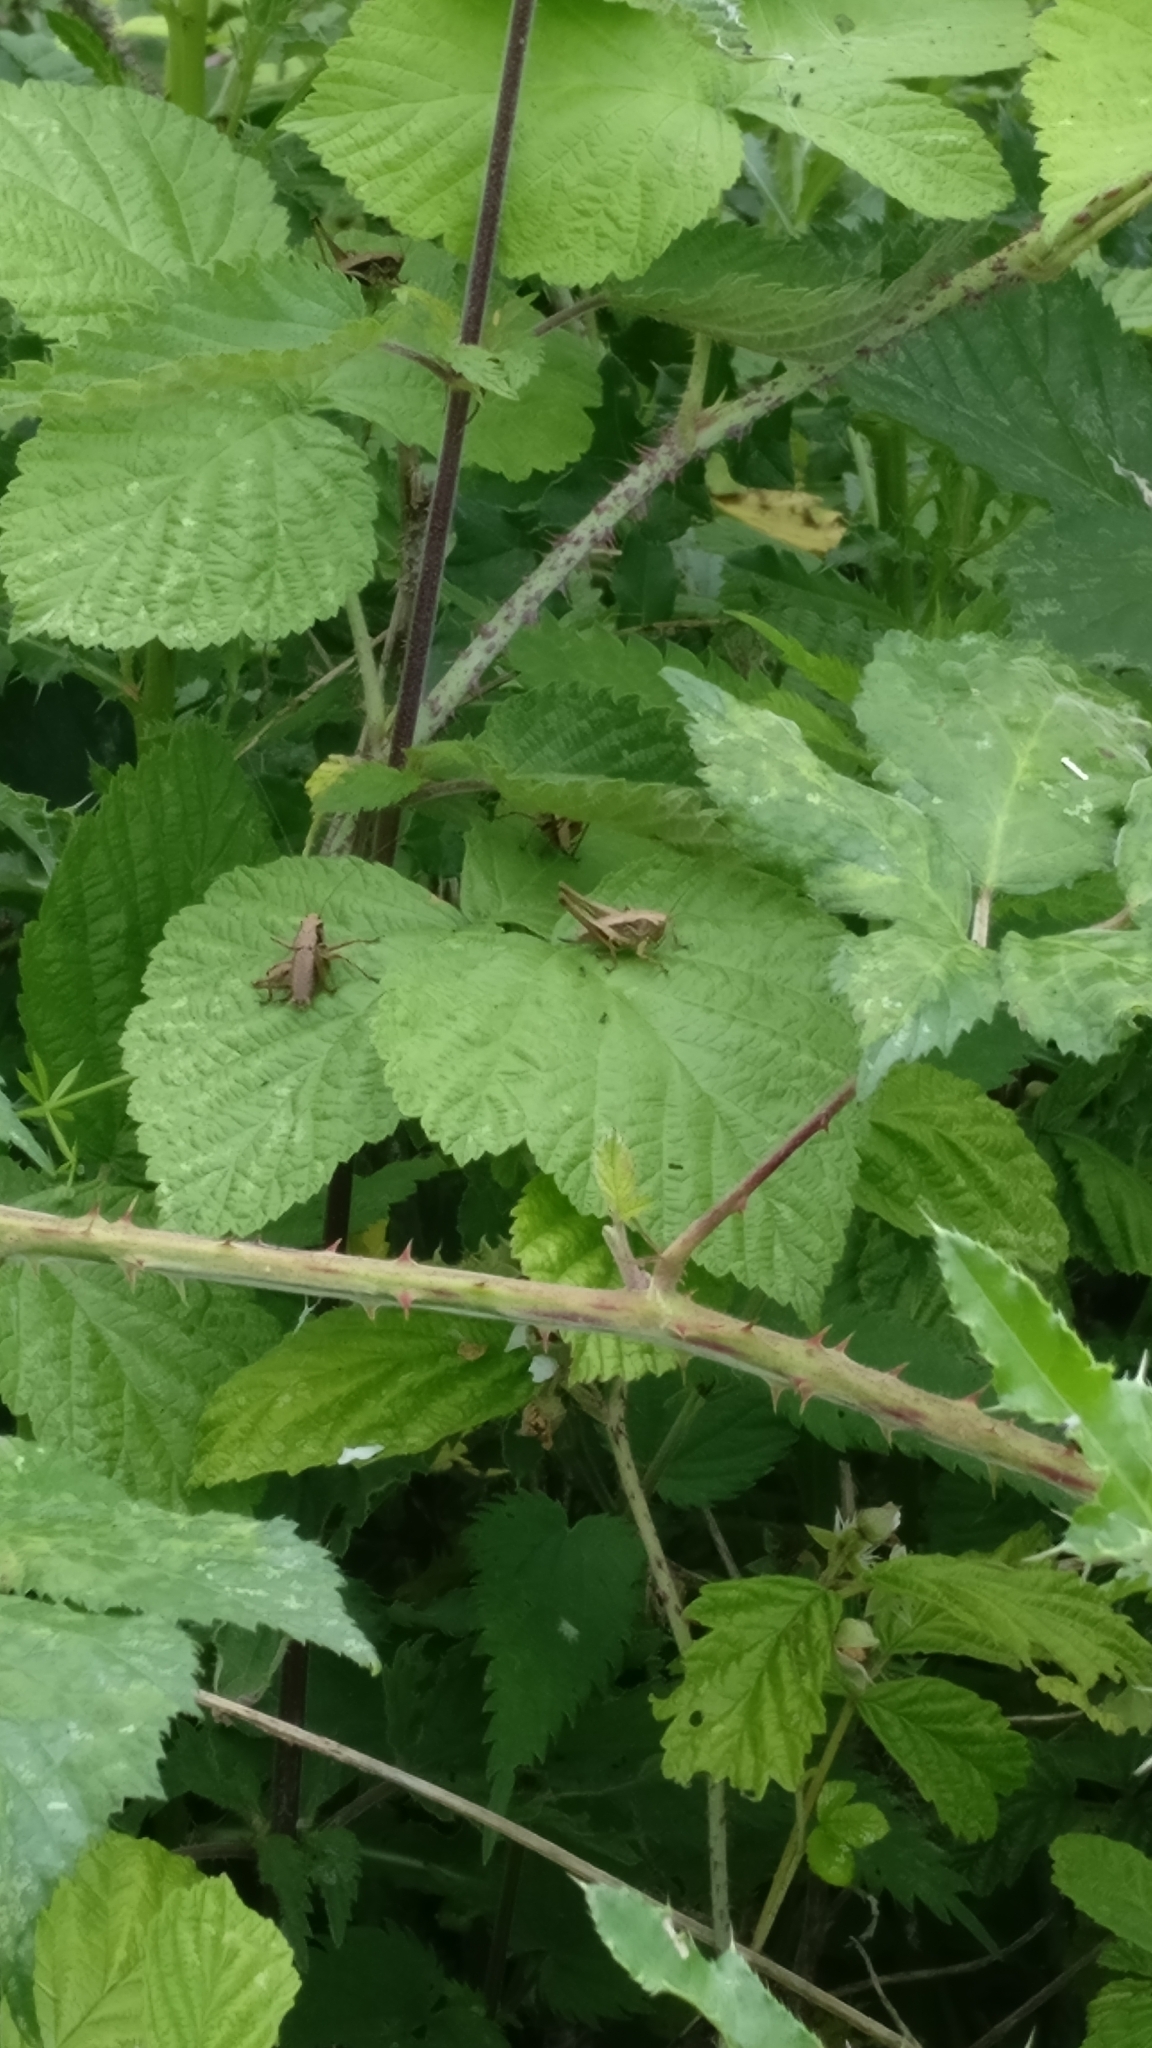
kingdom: Animalia
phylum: Arthropoda
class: Insecta
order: Orthoptera
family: Tettigoniidae
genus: Pholidoptera
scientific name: Pholidoptera griseoaptera
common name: Dark bush-cricket
